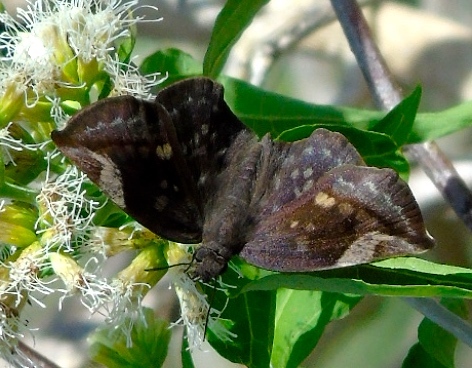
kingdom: Animalia
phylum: Arthropoda
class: Insecta
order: Lepidoptera
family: Hesperiidae
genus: Achlyodes
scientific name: Achlyodes thraso
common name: Sickle-winged skipper
